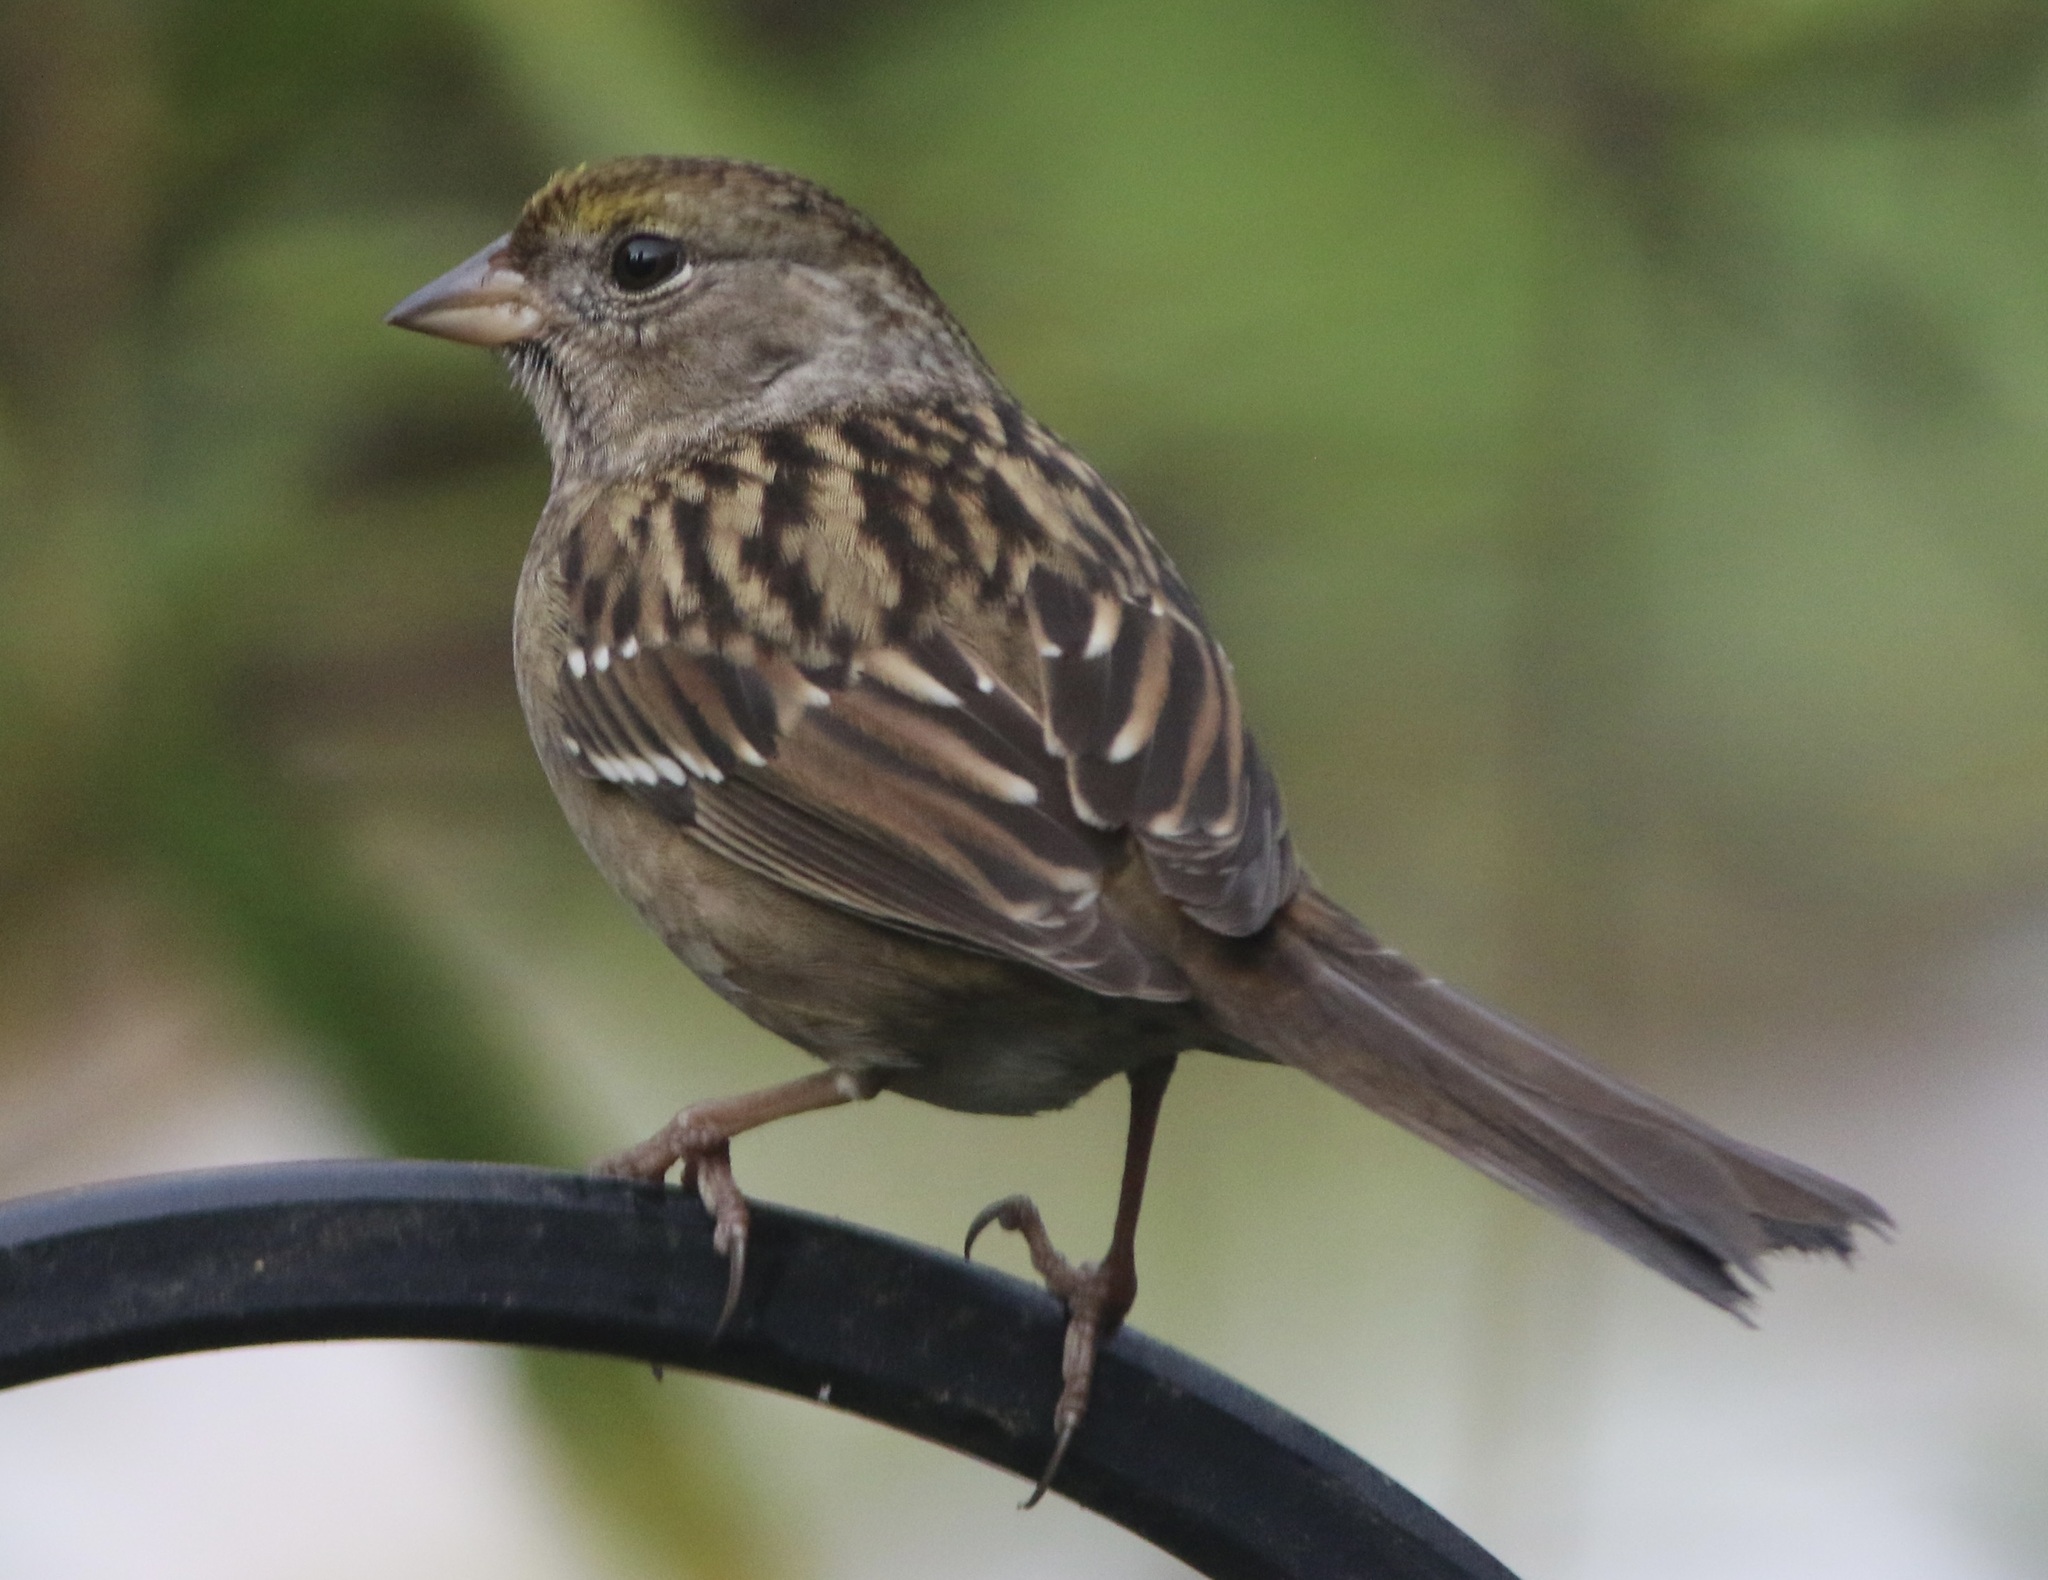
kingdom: Animalia
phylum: Chordata
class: Aves
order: Passeriformes
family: Passerellidae
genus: Zonotrichia
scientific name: Zonotrichia atricapilla
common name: Golden-crowned sparrow
